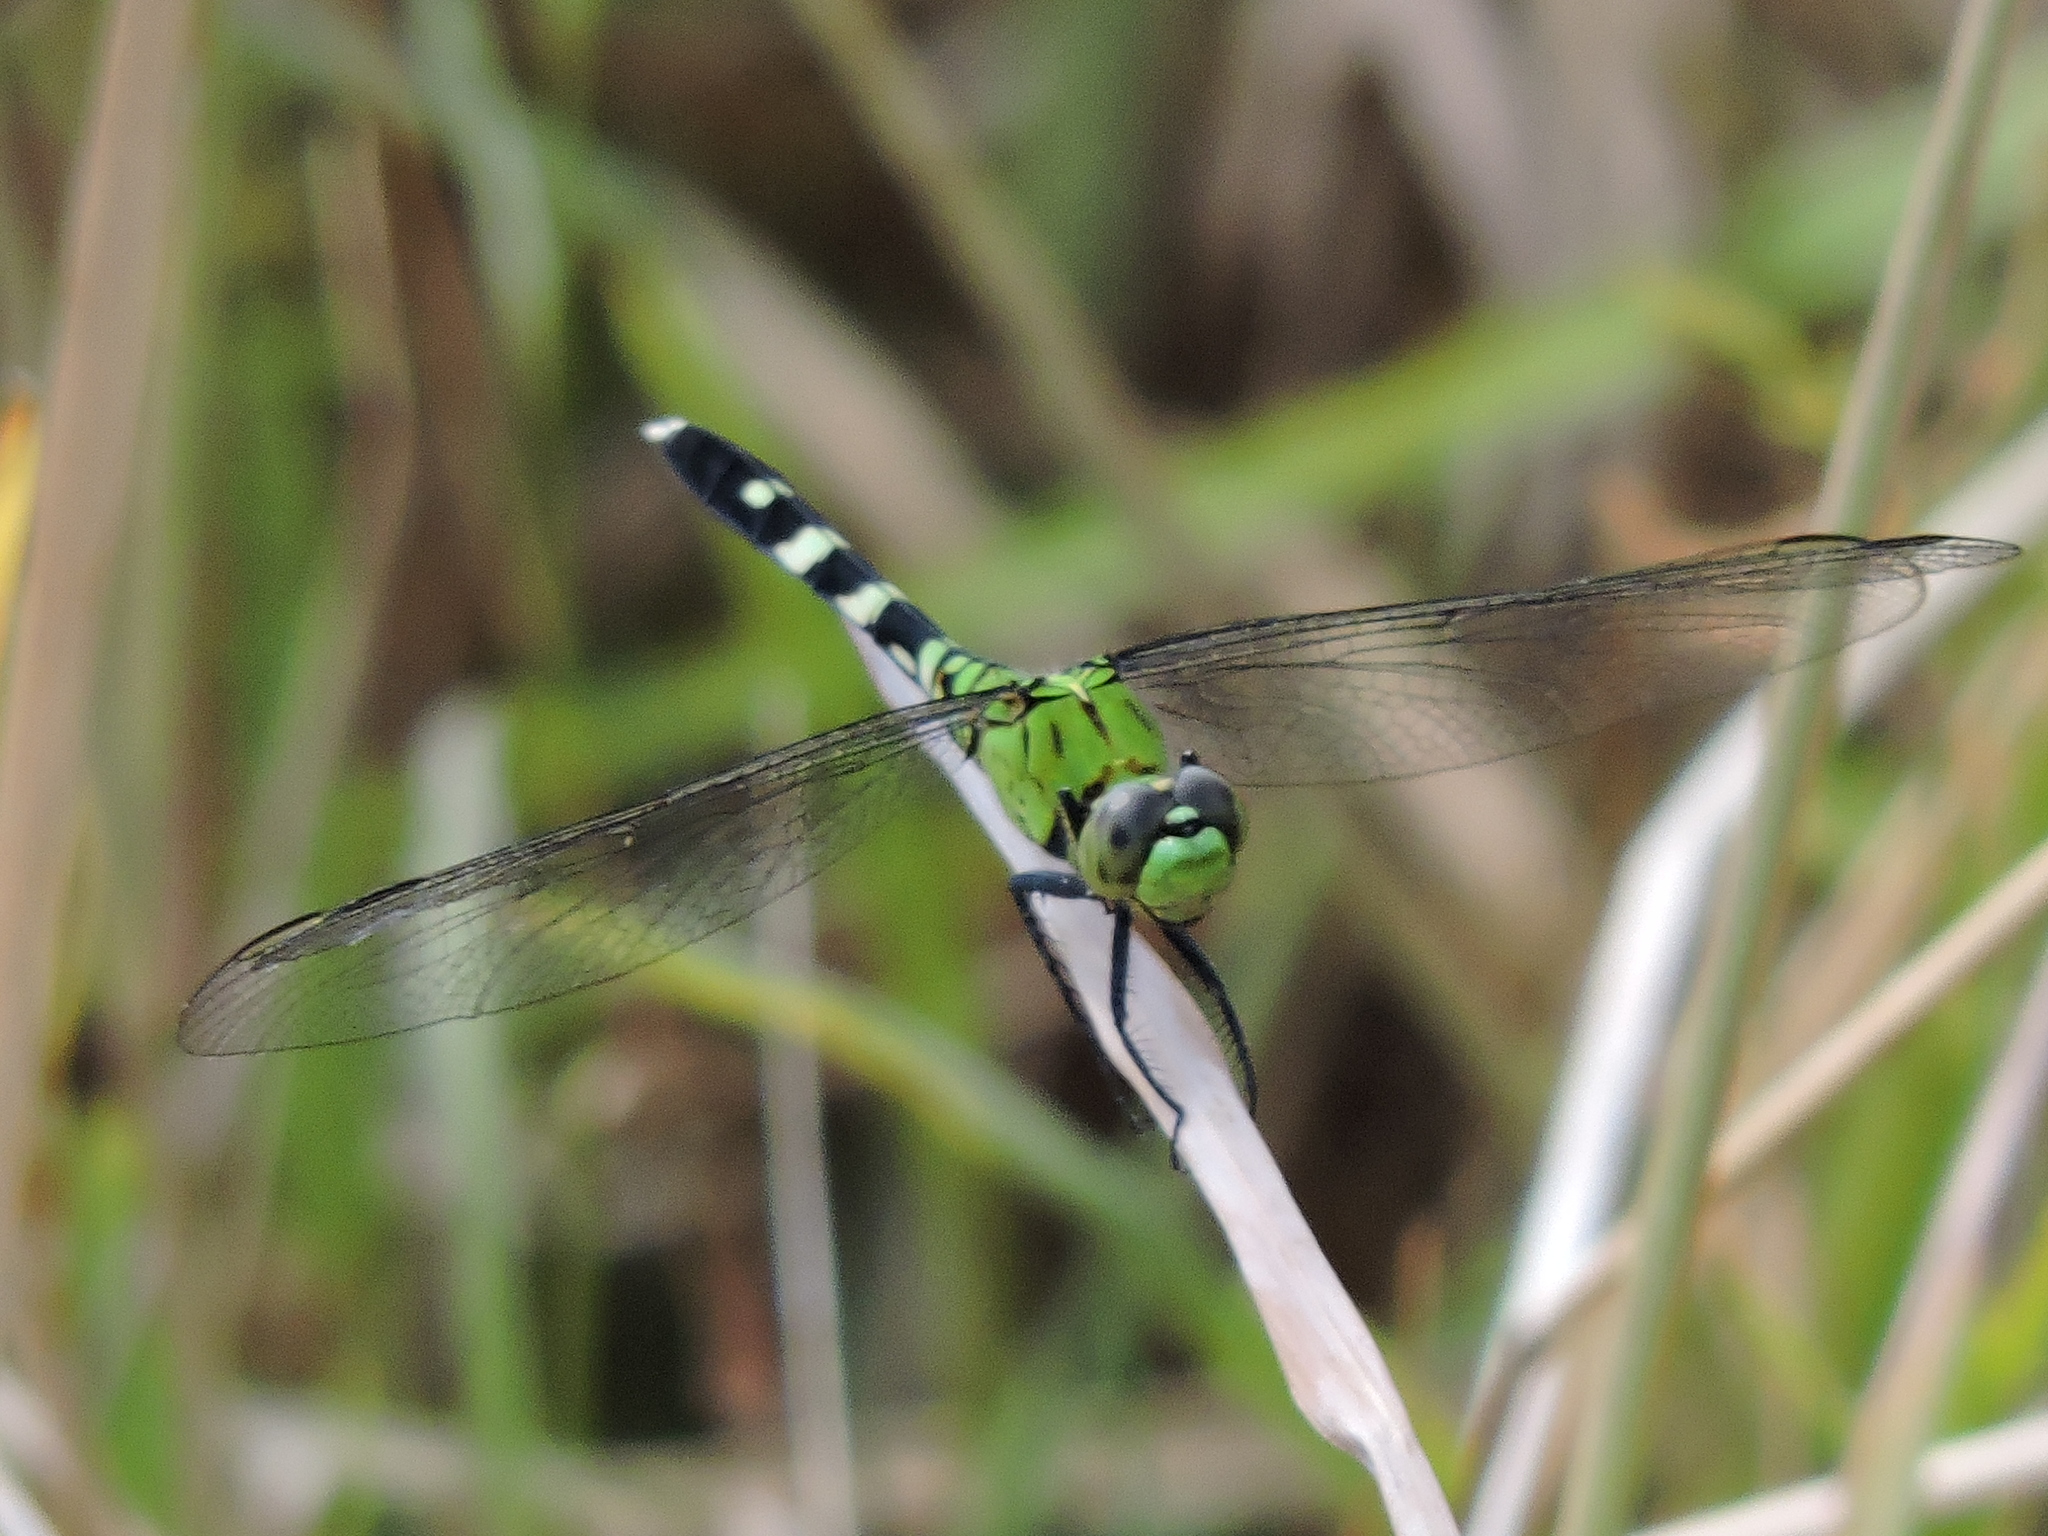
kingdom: Animalia
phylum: Arthropoda
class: Insecta
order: Odonata
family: Libellulidae
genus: Erythemis
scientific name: Erythemis simplicicollis
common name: Eastern pondhawk
